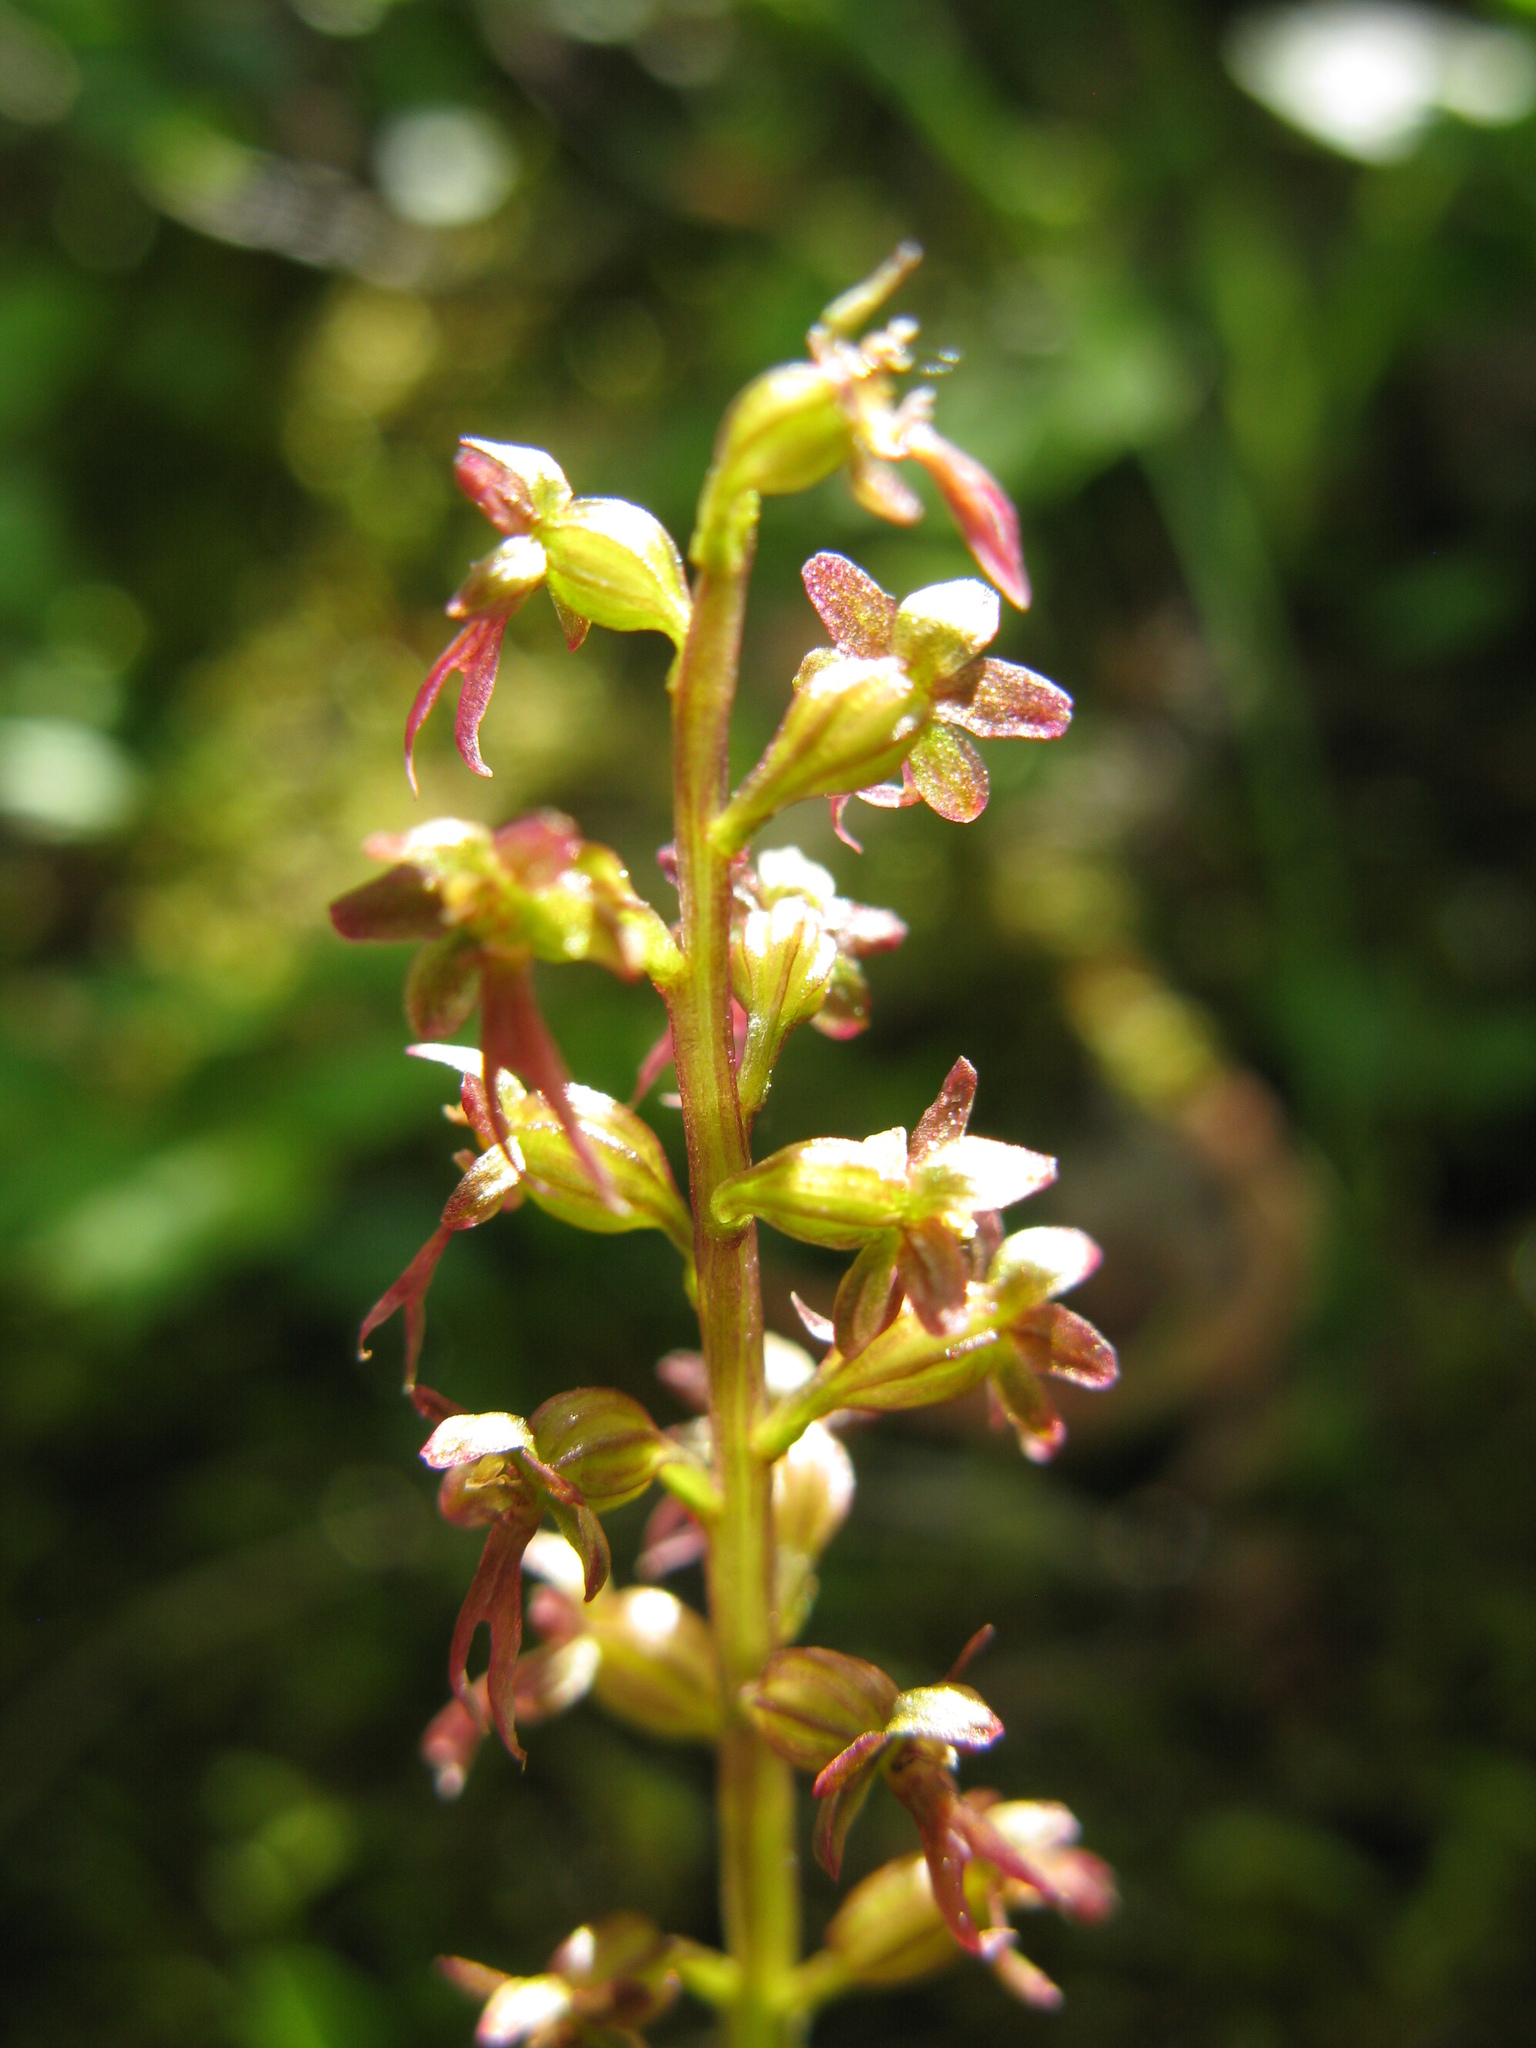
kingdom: Plantae
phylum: Tracheophyta
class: Liliopsida
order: Asparagales
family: Orchidaceae
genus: Neottia
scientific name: Neottia cordata
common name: Lesser twayblade
